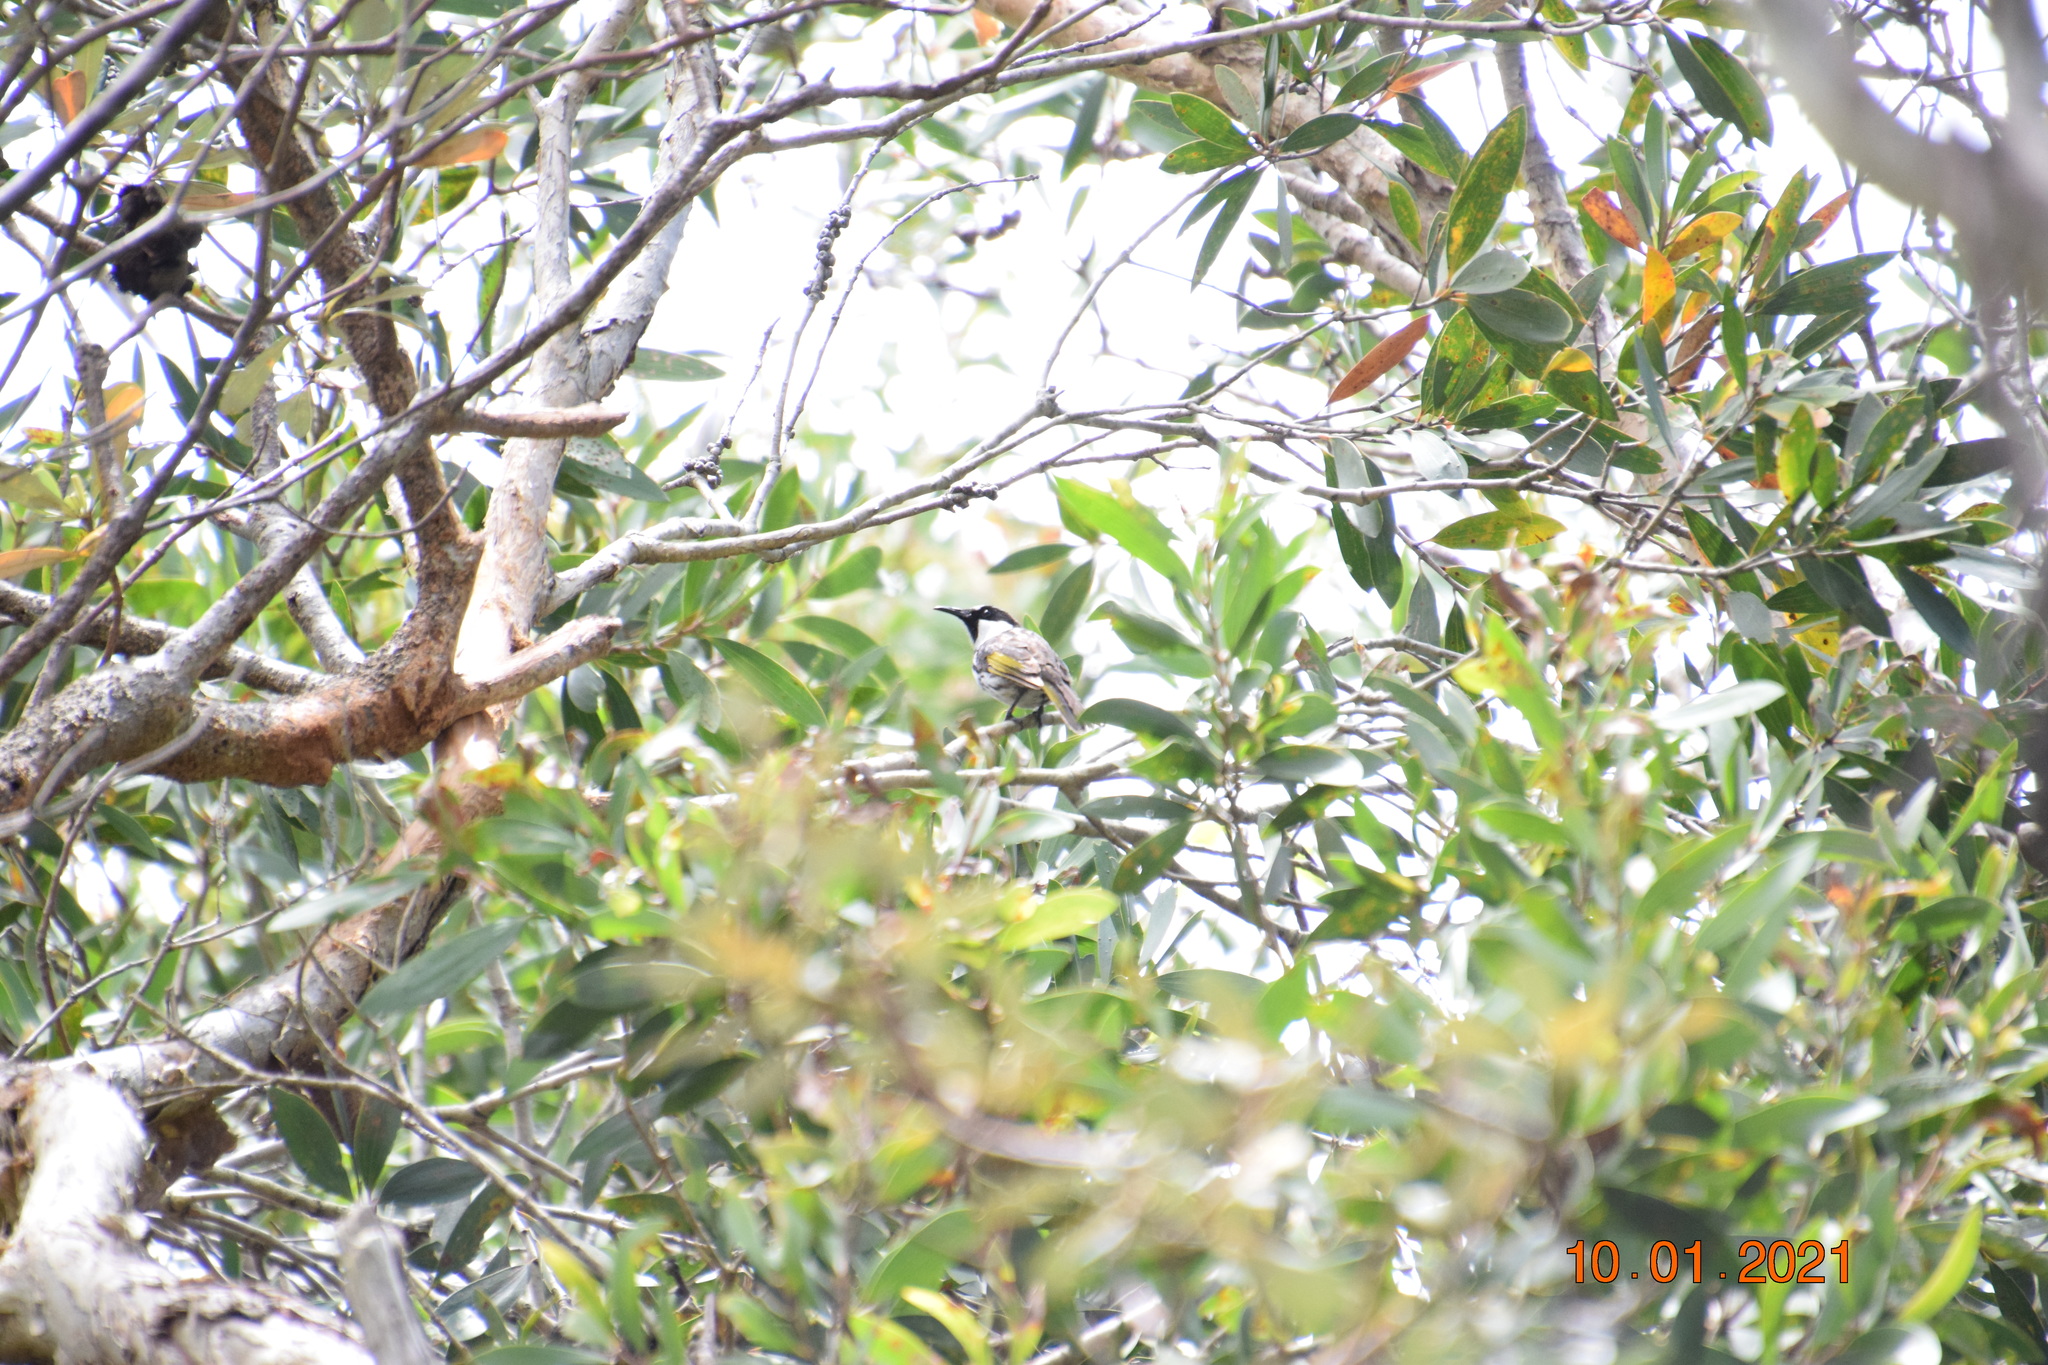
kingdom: Animalia
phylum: Chordata
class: Aves
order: Passeriformes
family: Meliphagidae
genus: Phylidonyris
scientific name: Phylidonyris niger
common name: White-cheeked honeyeater
